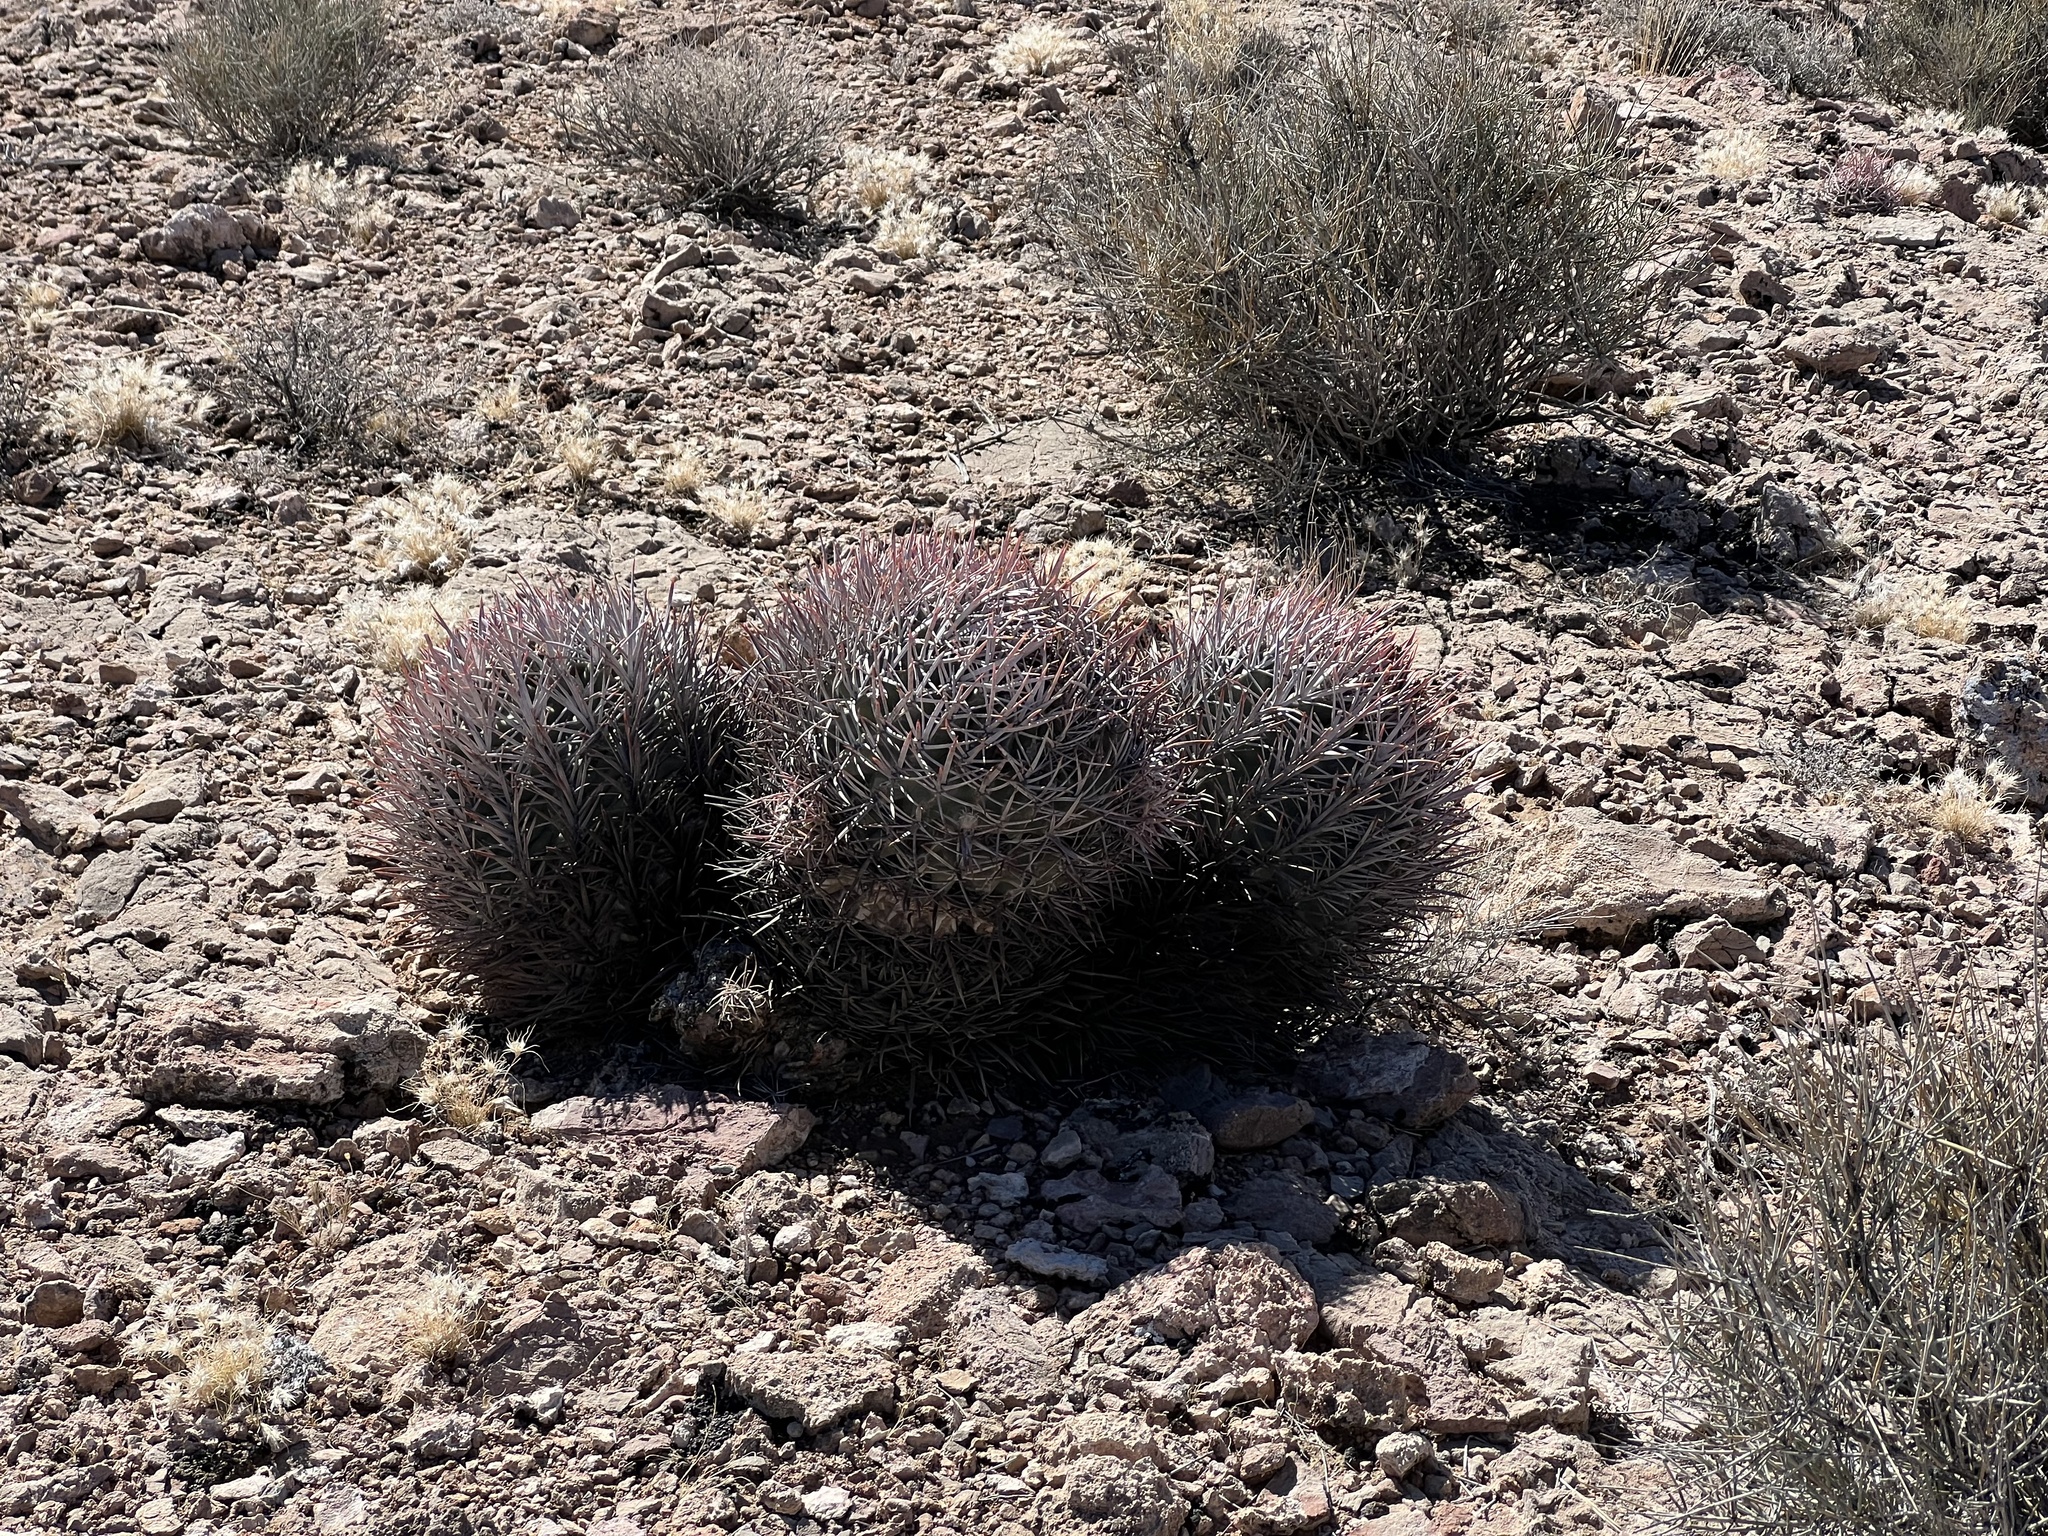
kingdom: Plantae
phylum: Tracheophyta
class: Magnoliopsida
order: Caryophyllales
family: Cactaceae
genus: Echinocactus
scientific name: Echinocactus polycephalus
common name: Cottontop cactus
